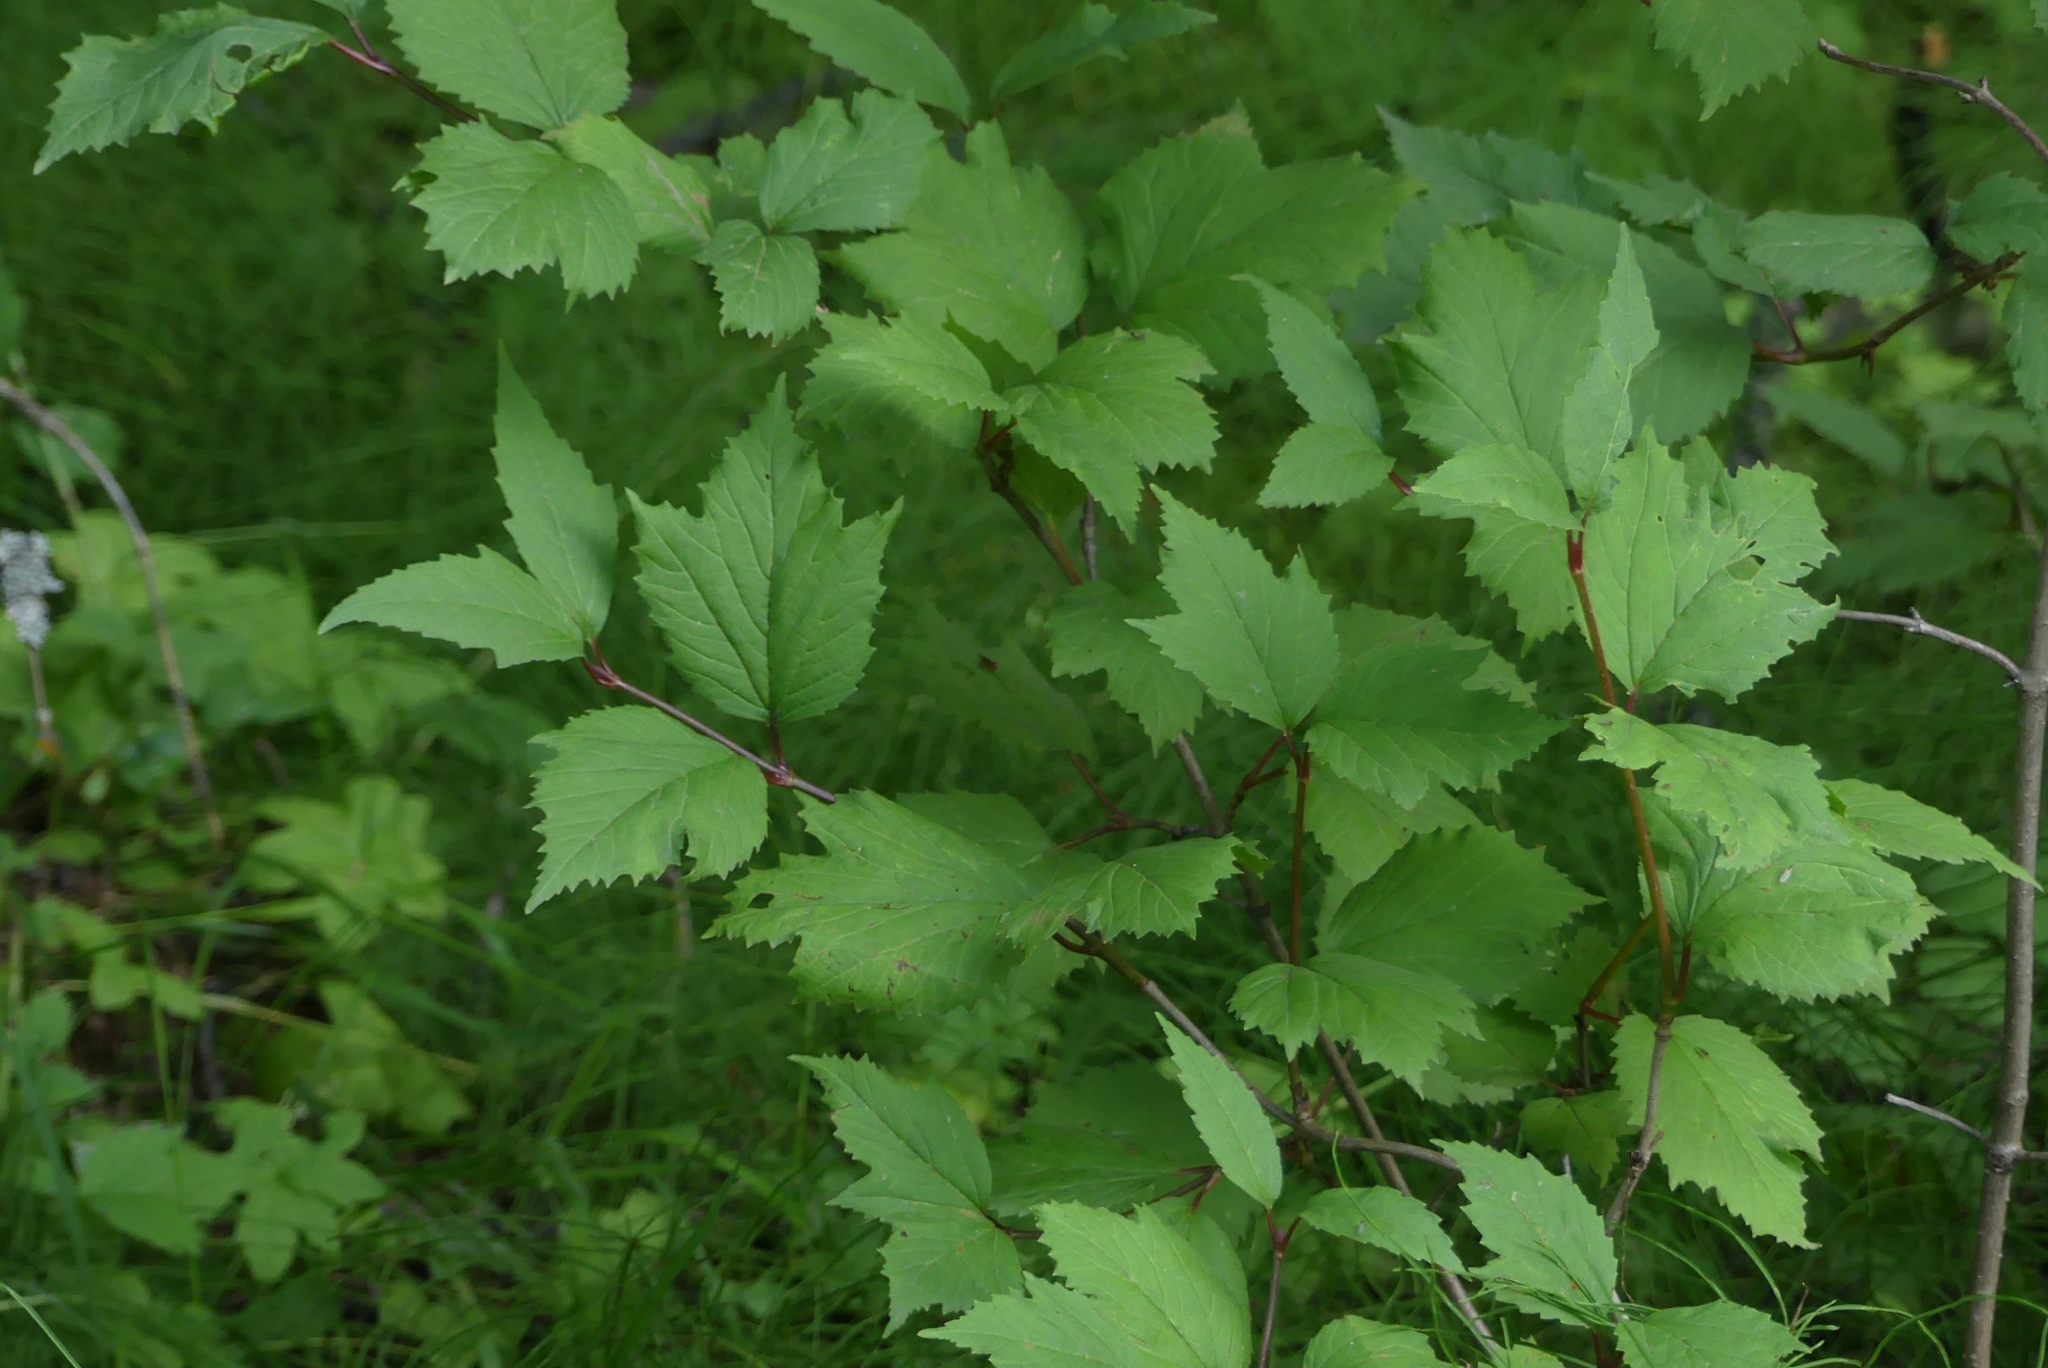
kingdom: Plantae
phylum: Tracheophyta
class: Magnoliopsida
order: Dipsacales
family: Viburnaceae
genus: Viburnum
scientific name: Viburnum edule
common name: Mooseberry
